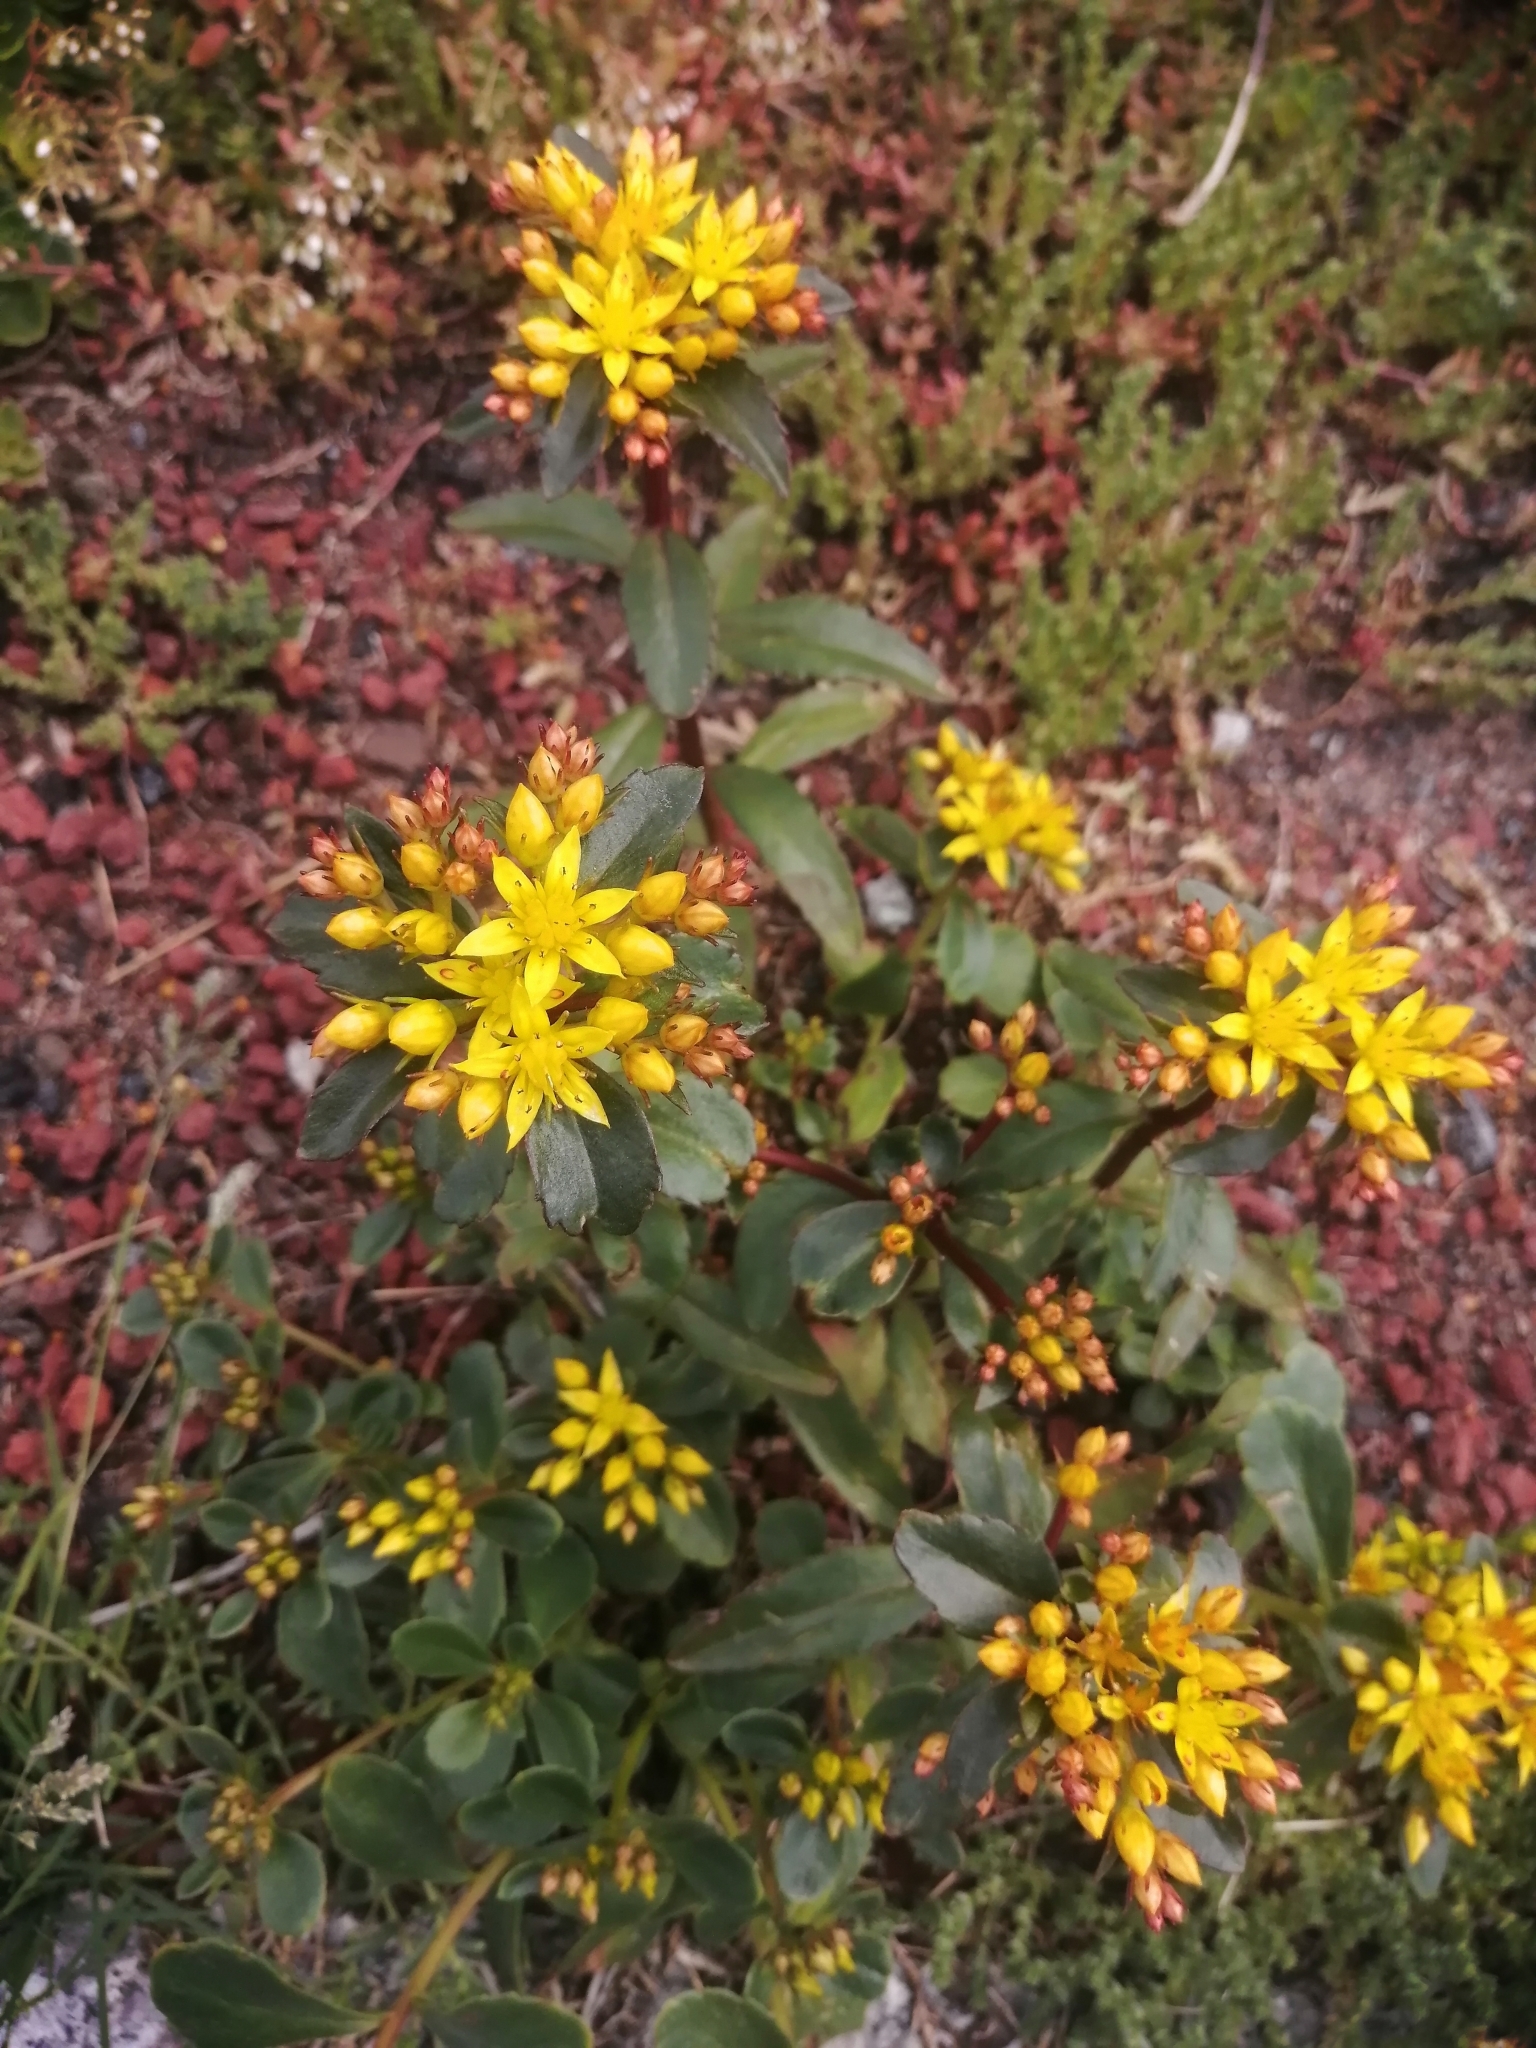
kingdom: Plantae
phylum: Tracheophyta
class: Magnoliopsida
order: Saxifragales
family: Crassulaceae
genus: Phedimus
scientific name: Phedimus kamtschaticus
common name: Orange stonecrop
